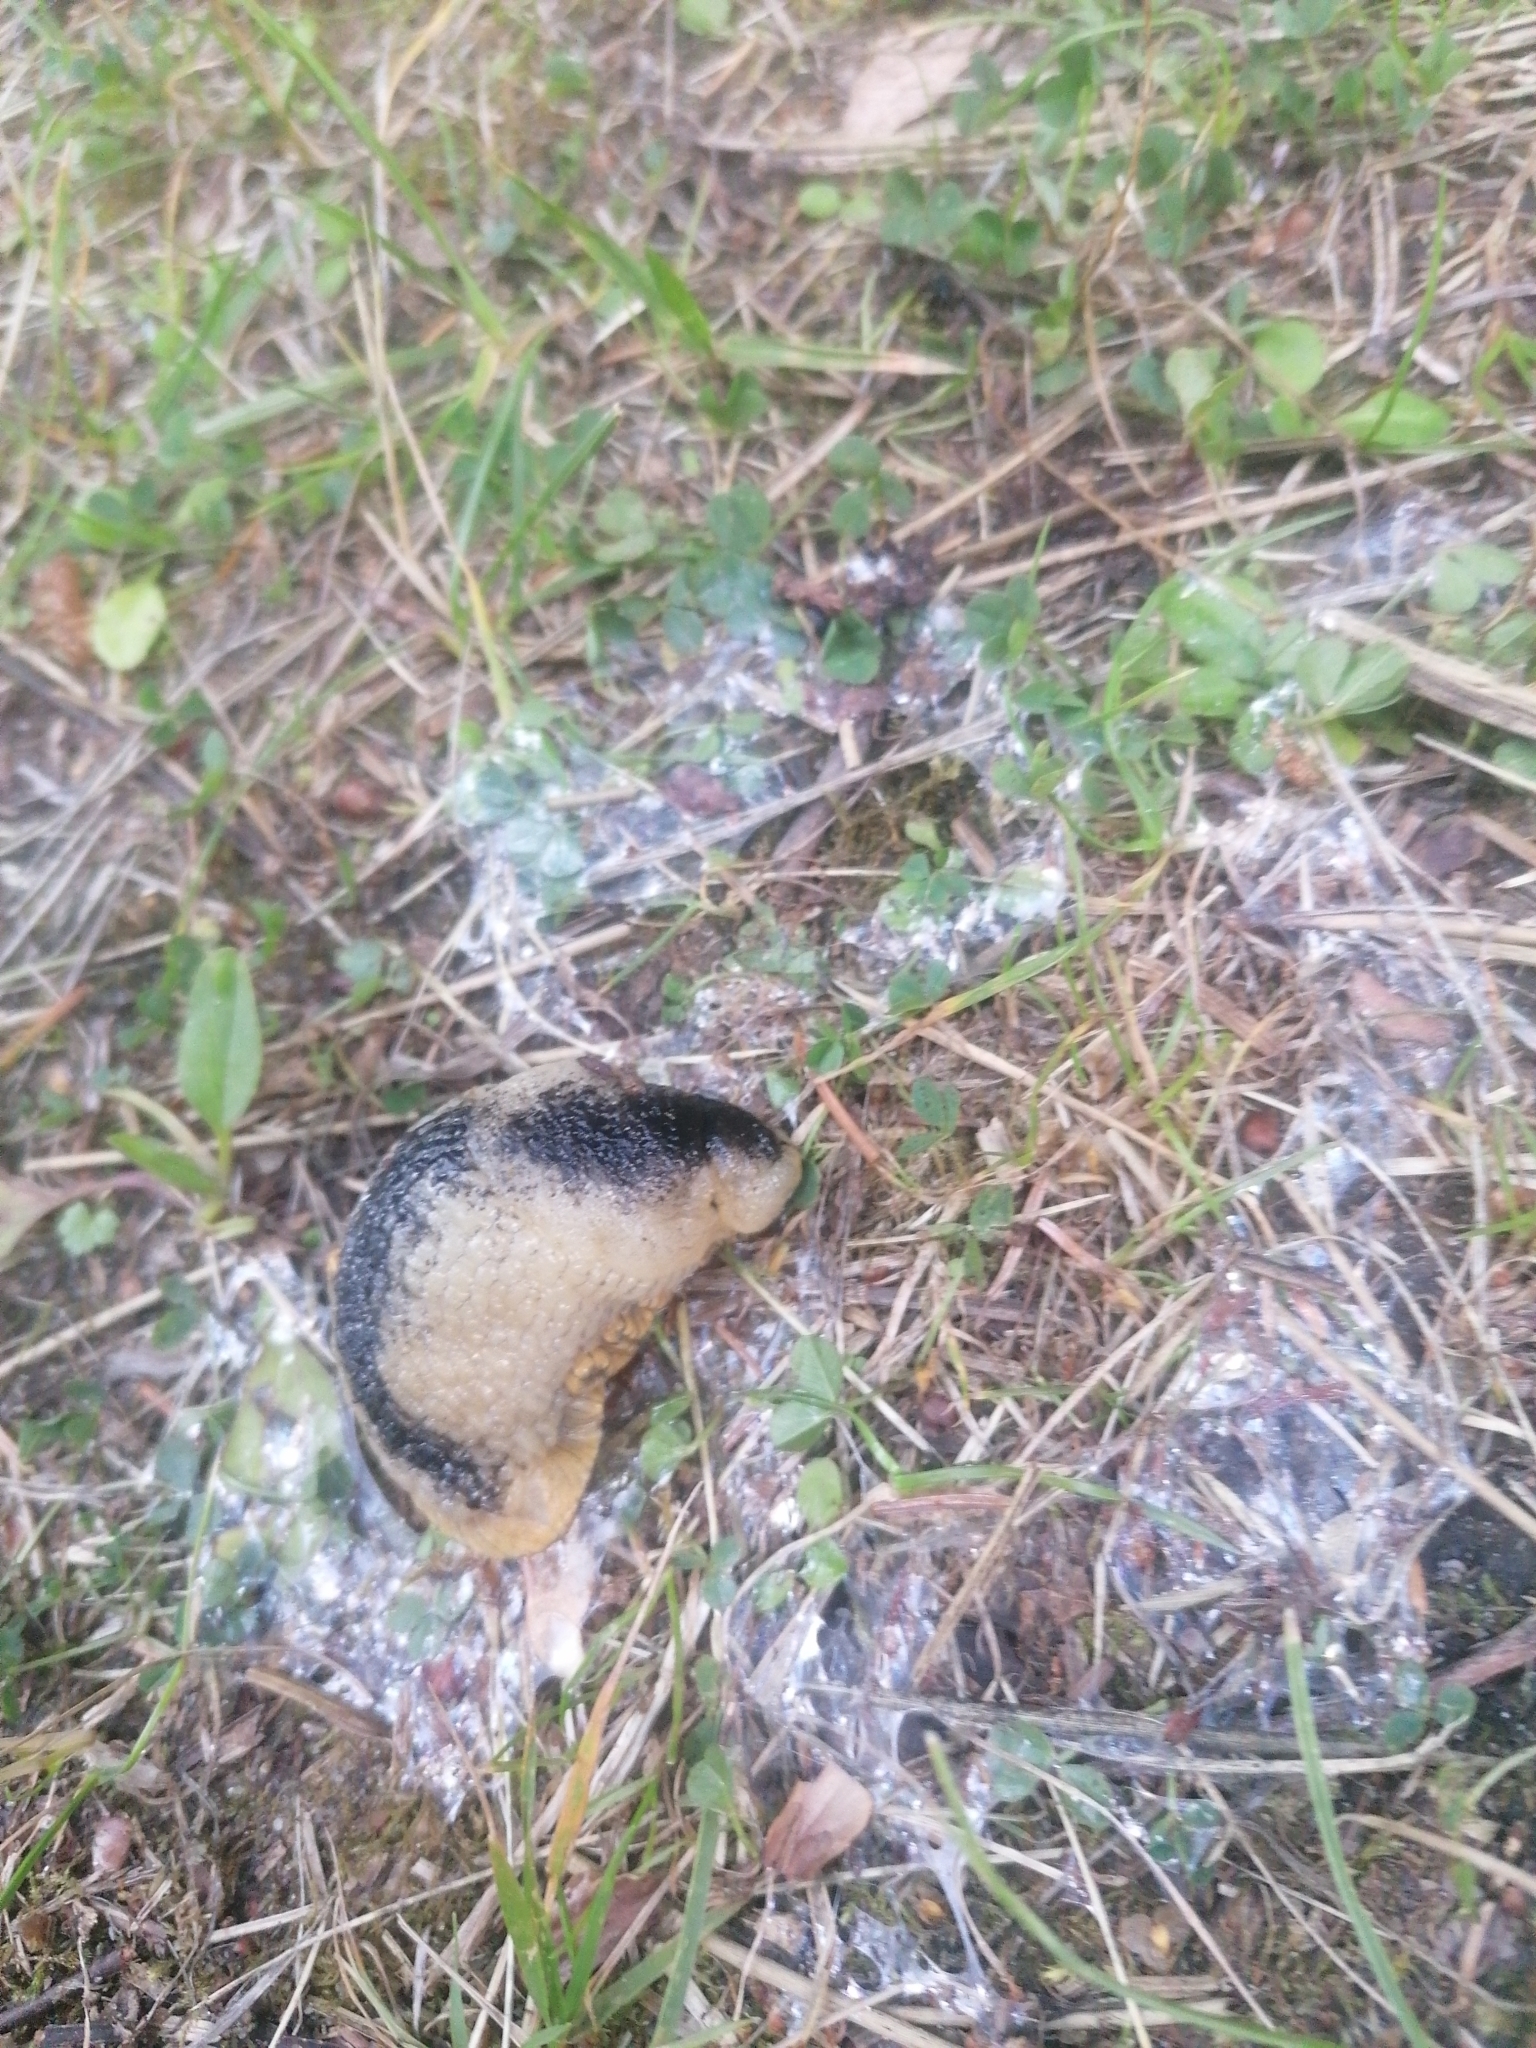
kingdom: Animalia
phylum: Mollusca
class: Gastropoda
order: Stylommatophora
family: Arionidae
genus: Arion
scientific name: Arion ater
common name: Black arion
